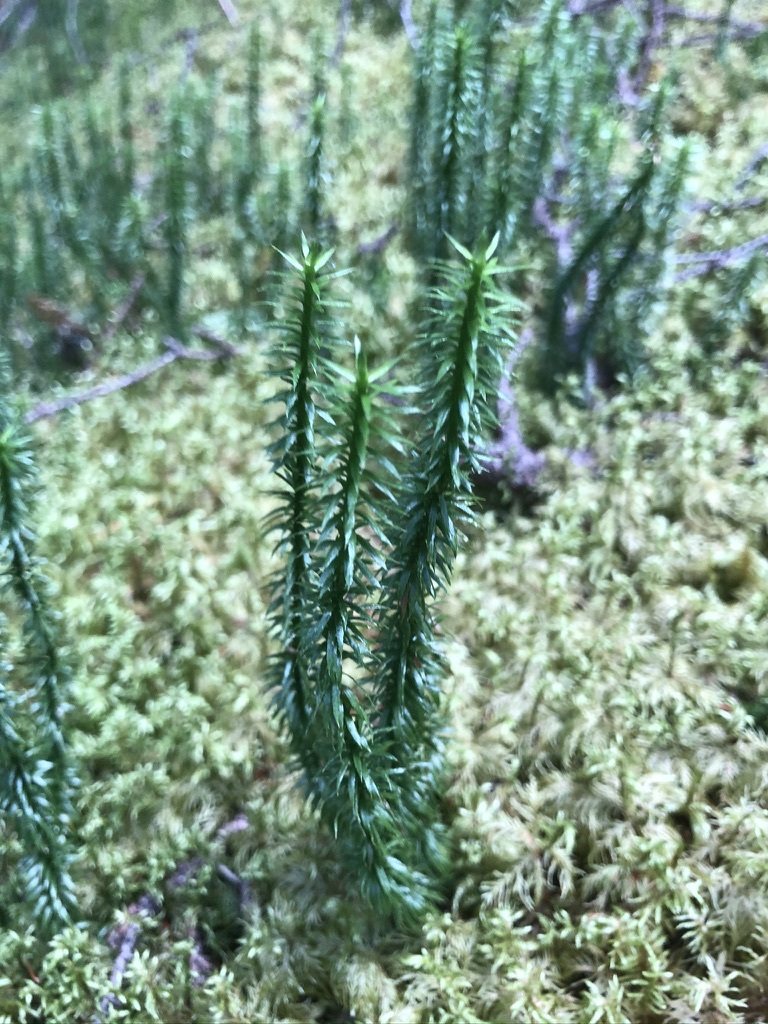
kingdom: Plantae
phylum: Tracheophyta
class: Lycopodiopsida
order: Lycopodiales
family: Lycopodiaceae
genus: Spinulum
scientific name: Spinulum annotinum
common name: Interrupted club-moss
